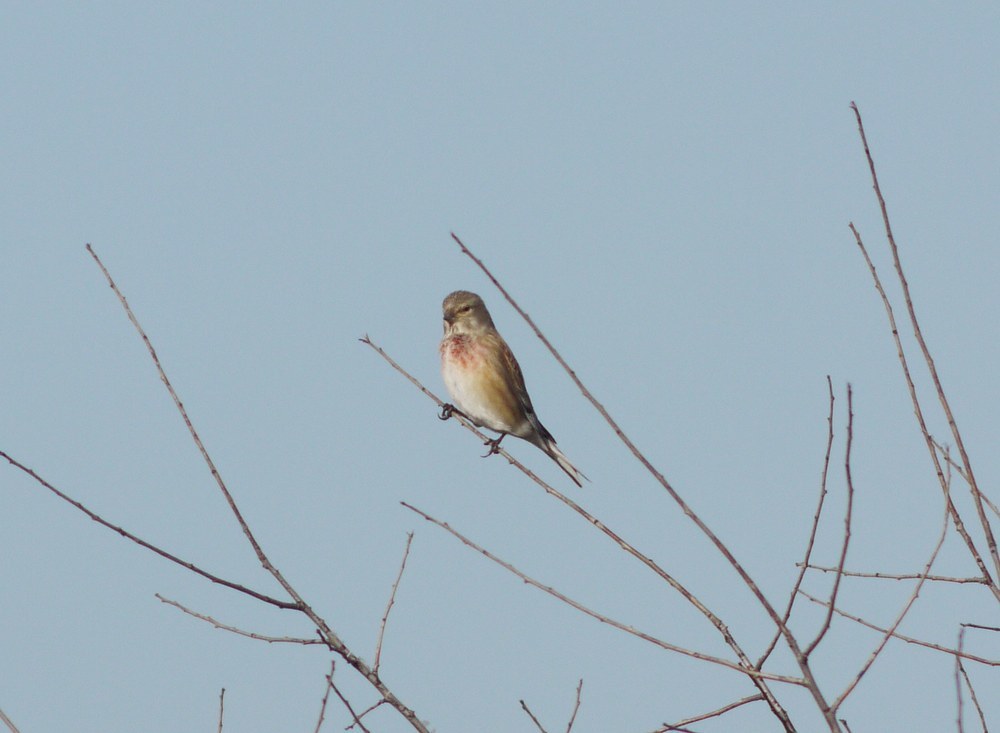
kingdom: Animalia
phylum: Chordata
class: Aves
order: Passeriformes
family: Fringillidae
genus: Linaria
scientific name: Linaria cannabina
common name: Common linnet
